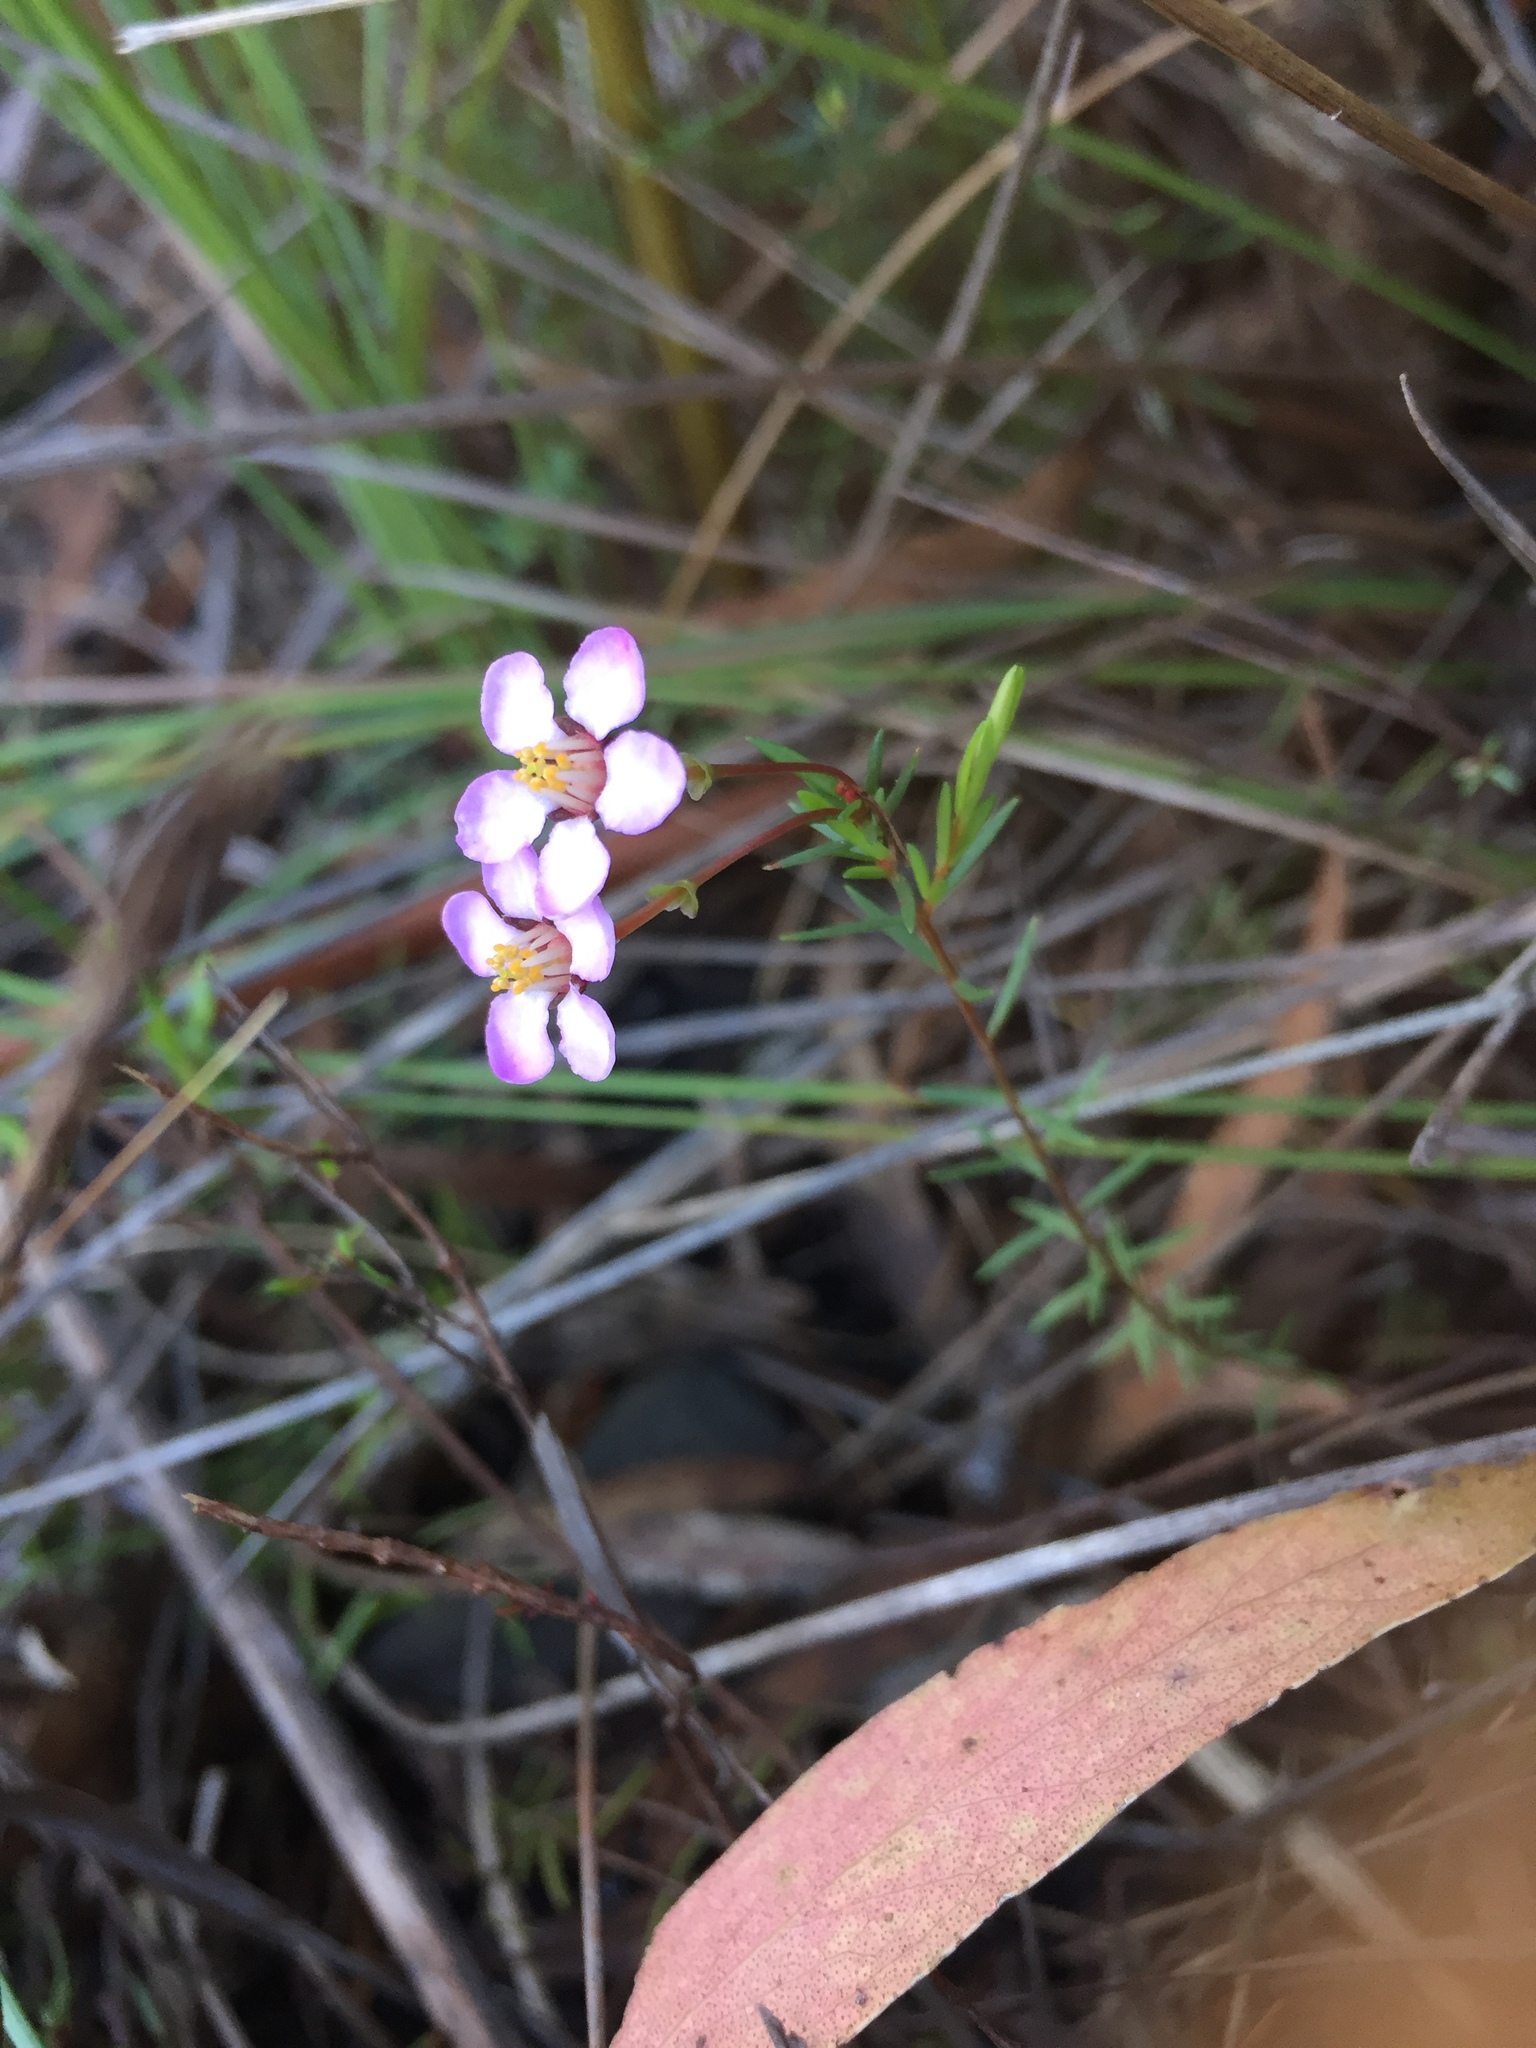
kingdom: Plantae
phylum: Tracheophyta
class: Magnoliopsida
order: Myrtales
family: Myrtaceae
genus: Euryomyrtus
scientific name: Euryomyrtus ramosissima
